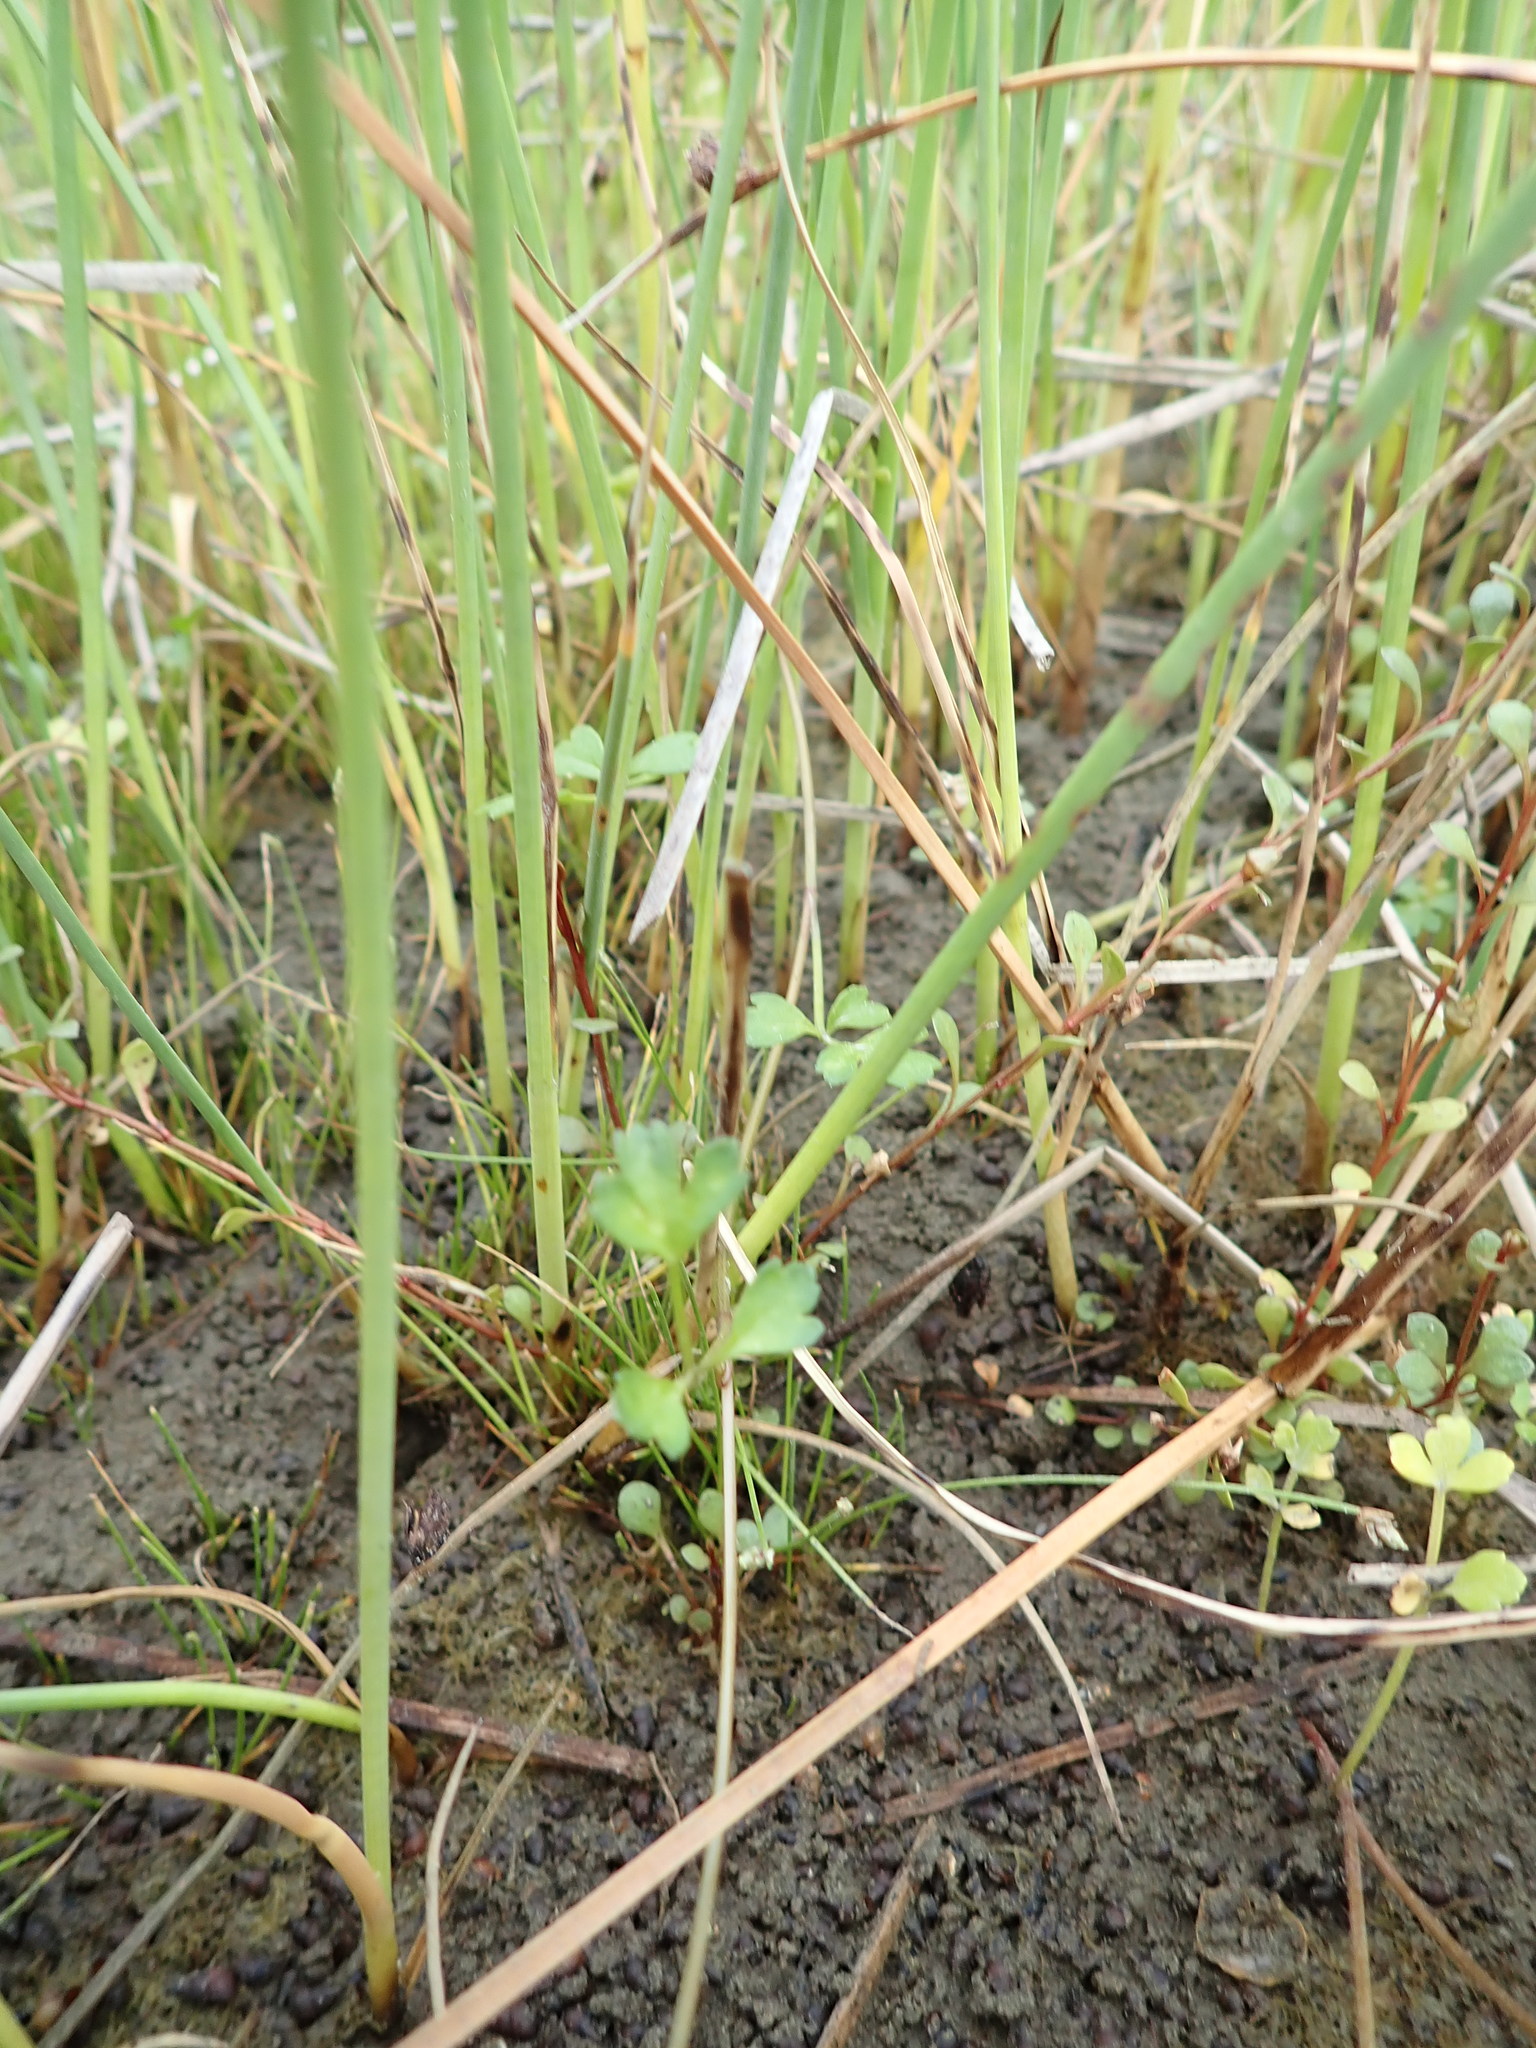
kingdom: Plantae
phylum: Tracheophyta
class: Magnoliopsida
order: Apiales
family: Apiaceae
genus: Apium
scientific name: Apium prostratum
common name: Prostrate marshwort
